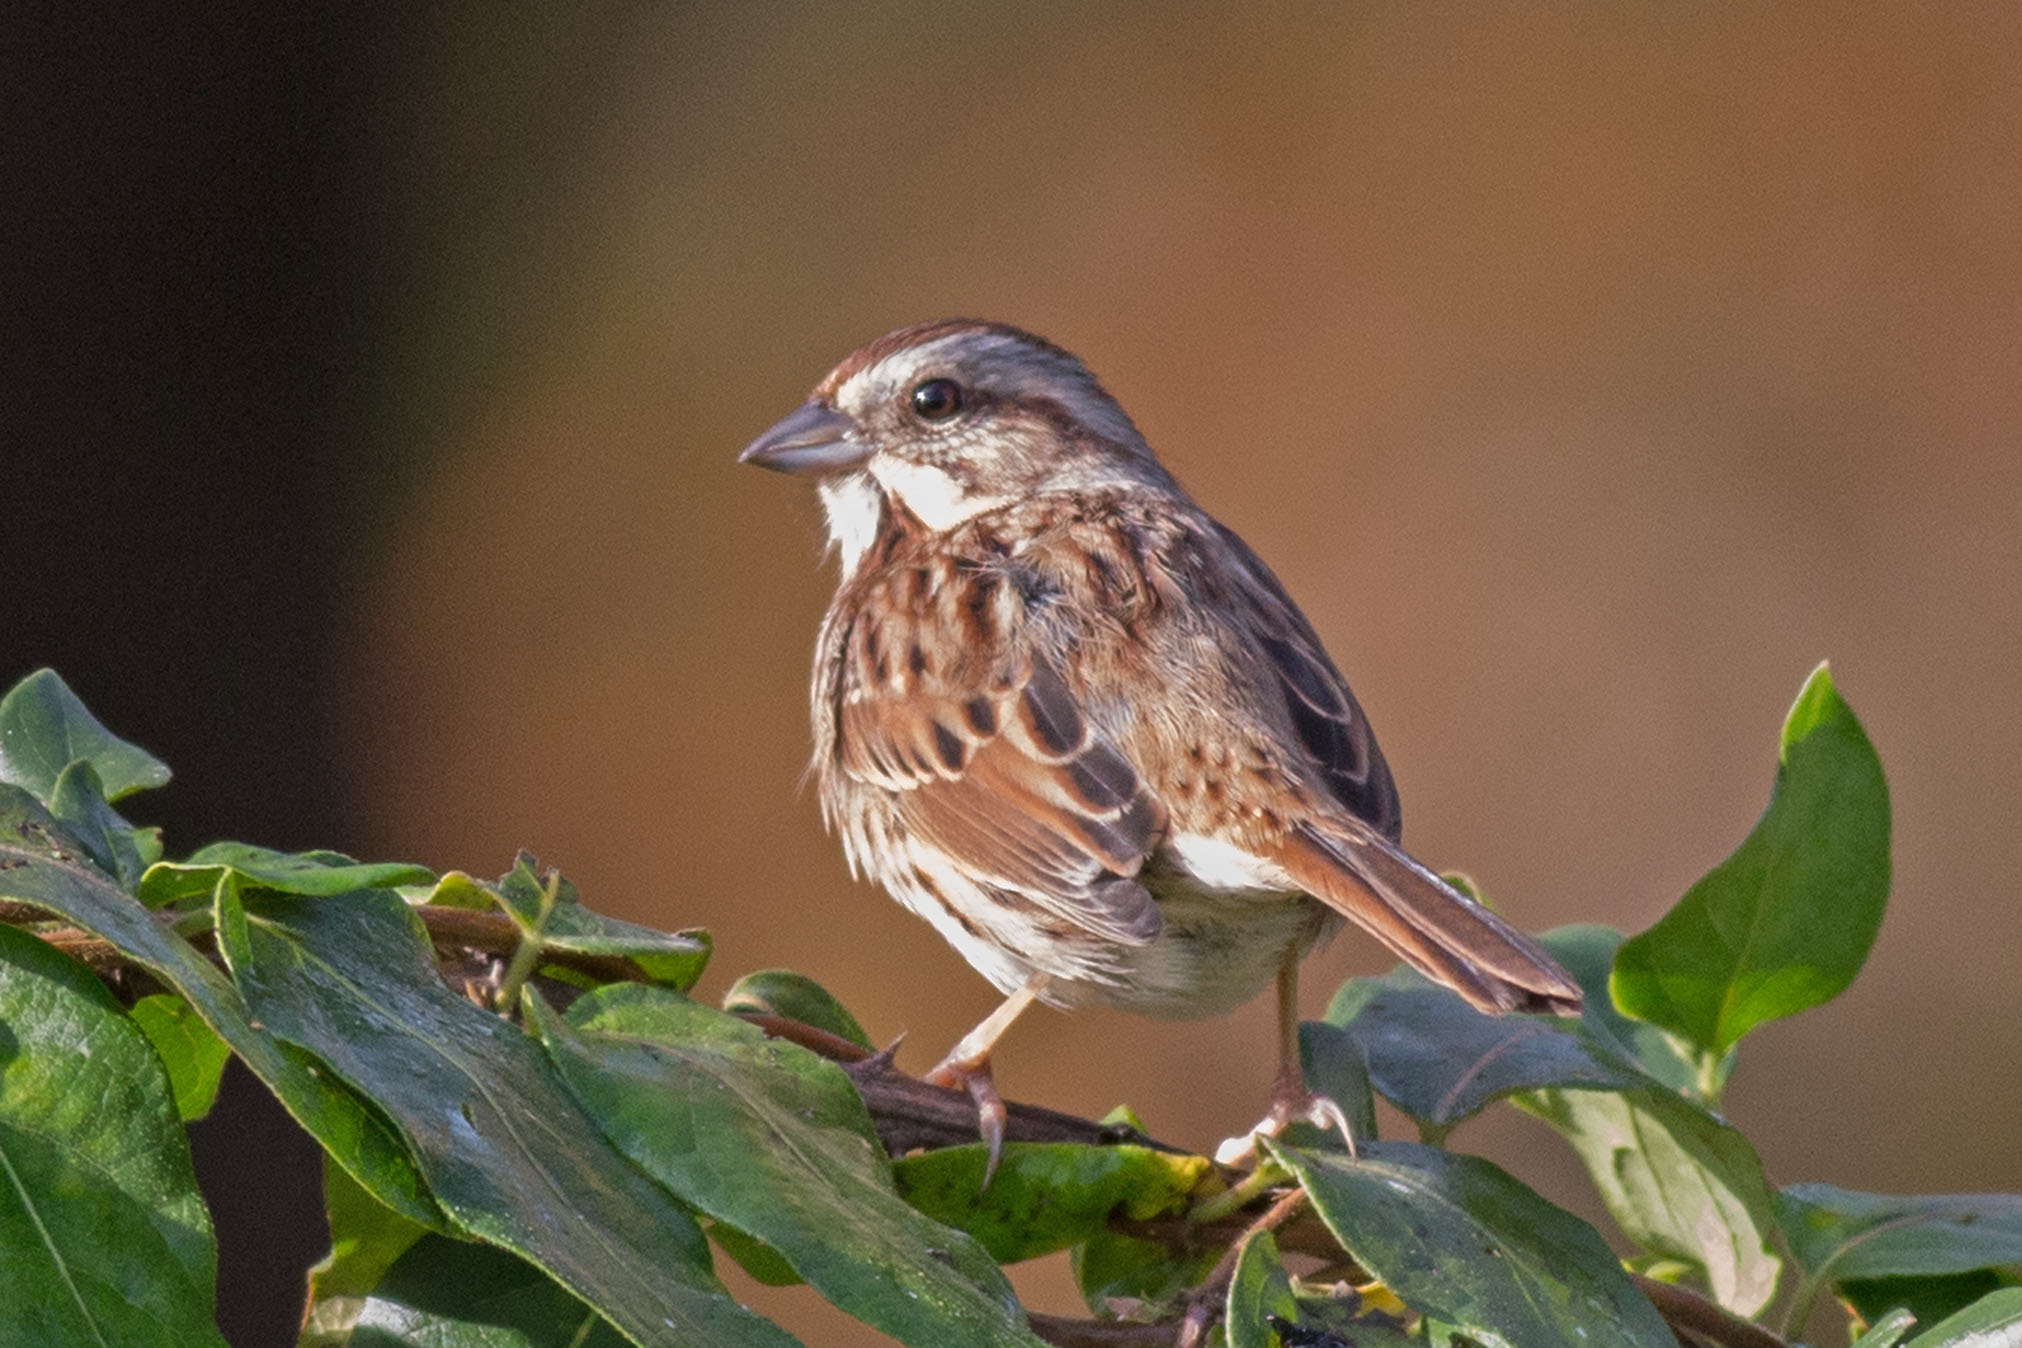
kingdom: Animalia
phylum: Chordata
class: Aves
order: Passeriformes
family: Passerellidae
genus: Melospiza
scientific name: Melospiza melodia
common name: Song sparrow
